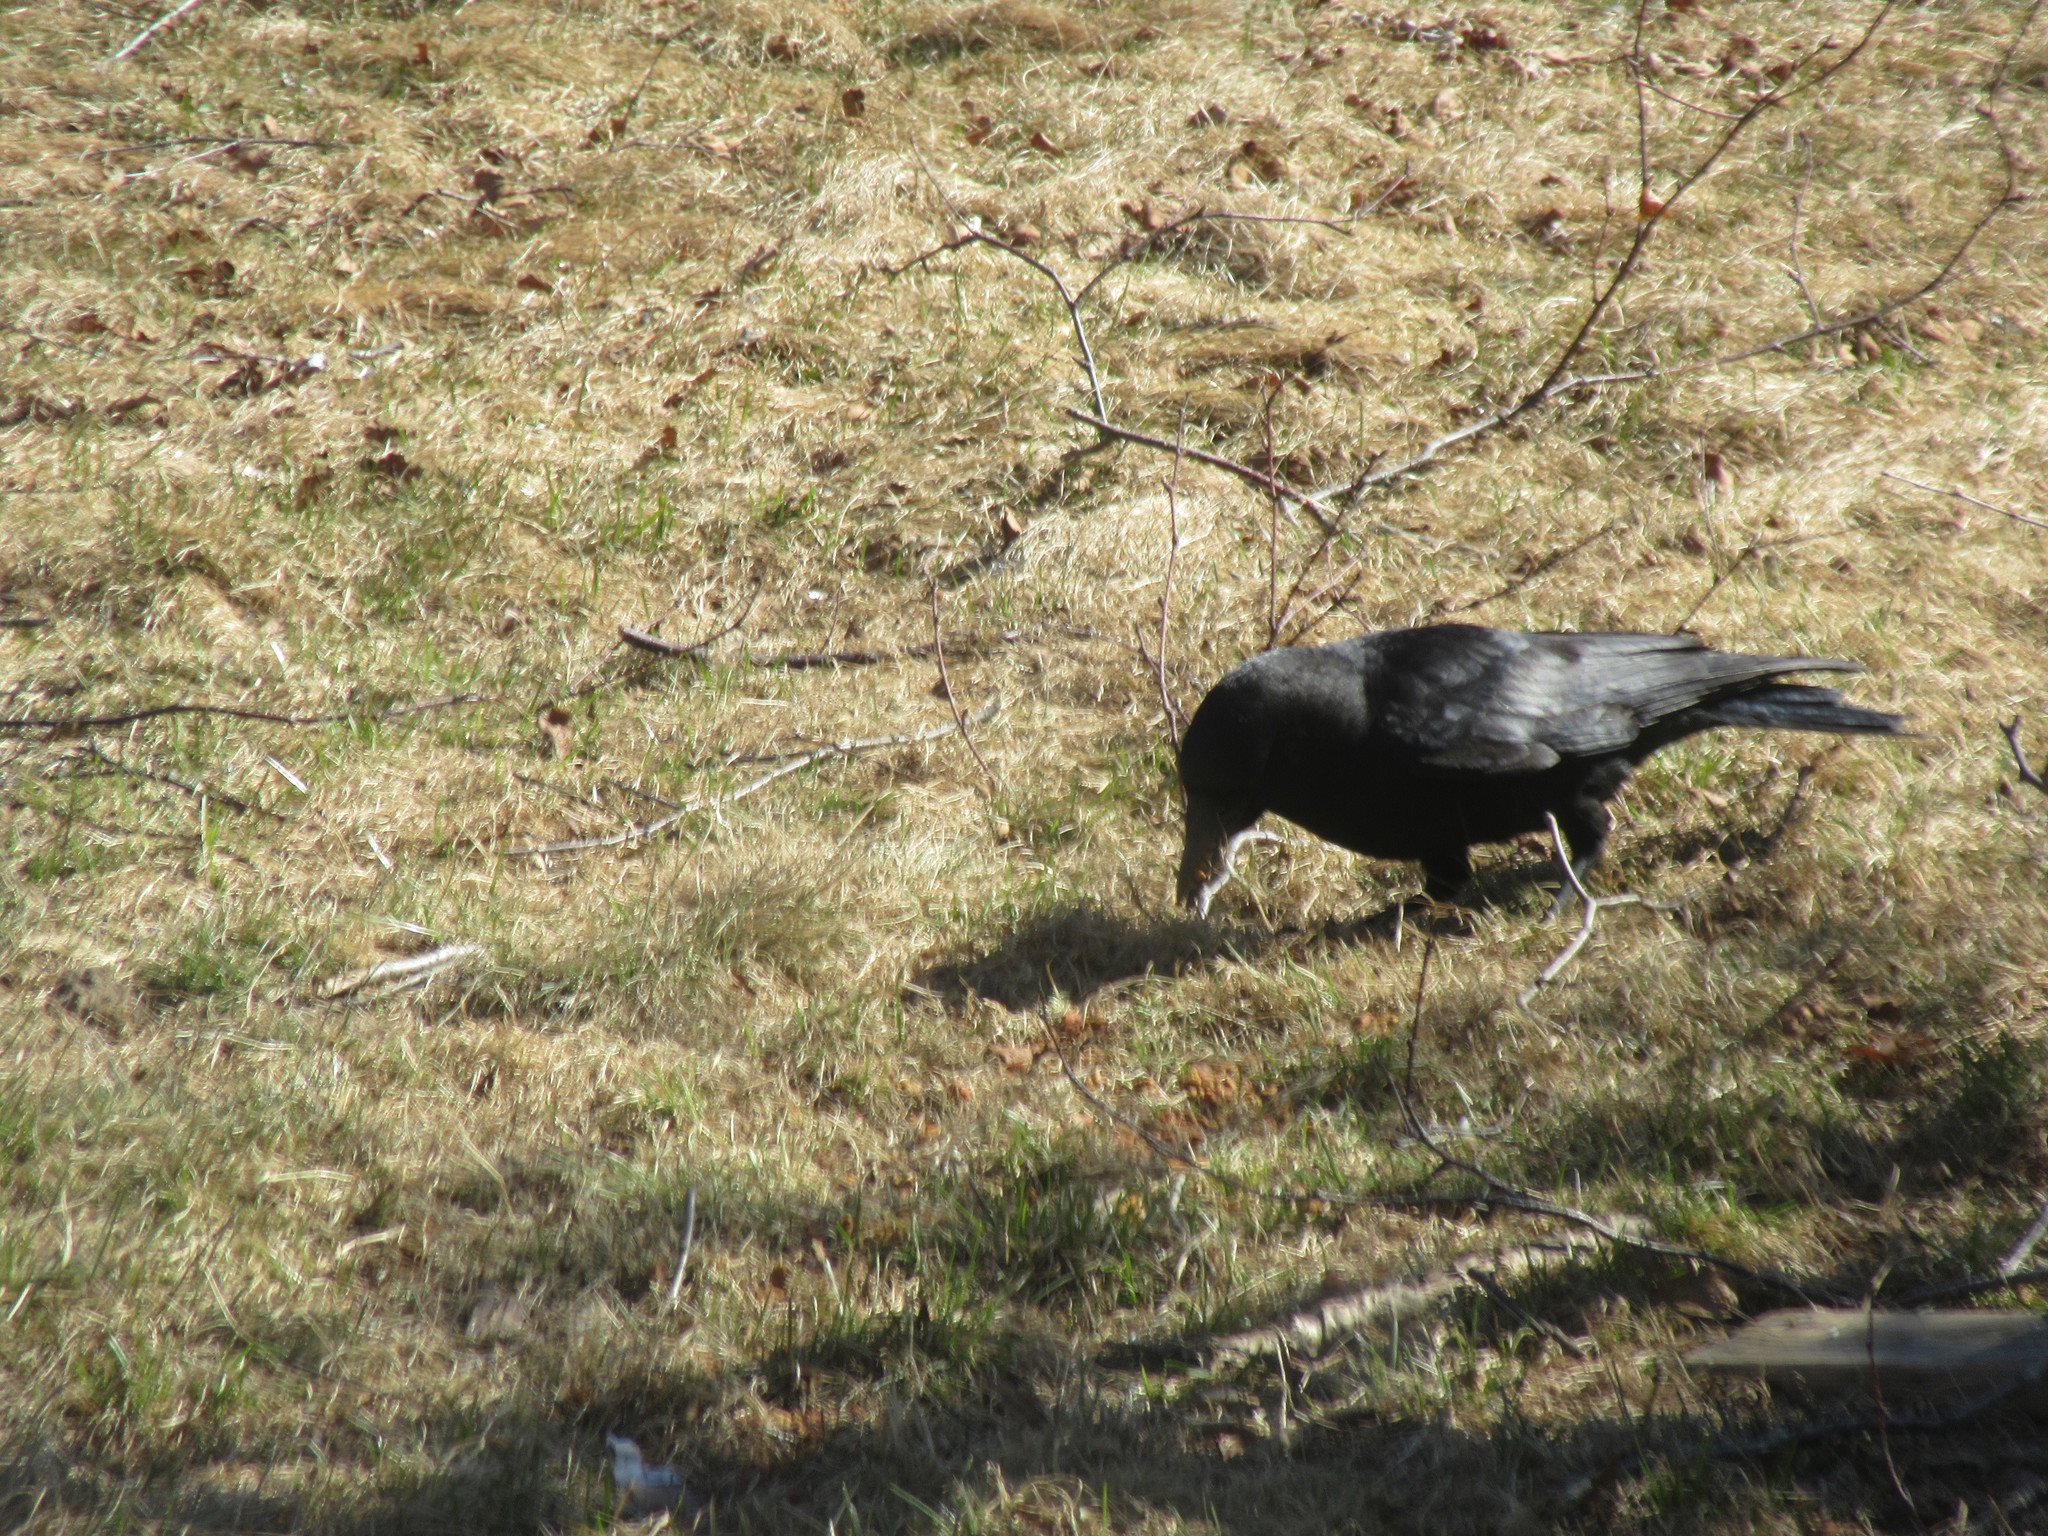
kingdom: Animalia
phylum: Chordata
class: Aves
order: Passeriformes
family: Corvidae
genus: Corvus
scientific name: Corvus brachyrhynchos
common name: American crow
